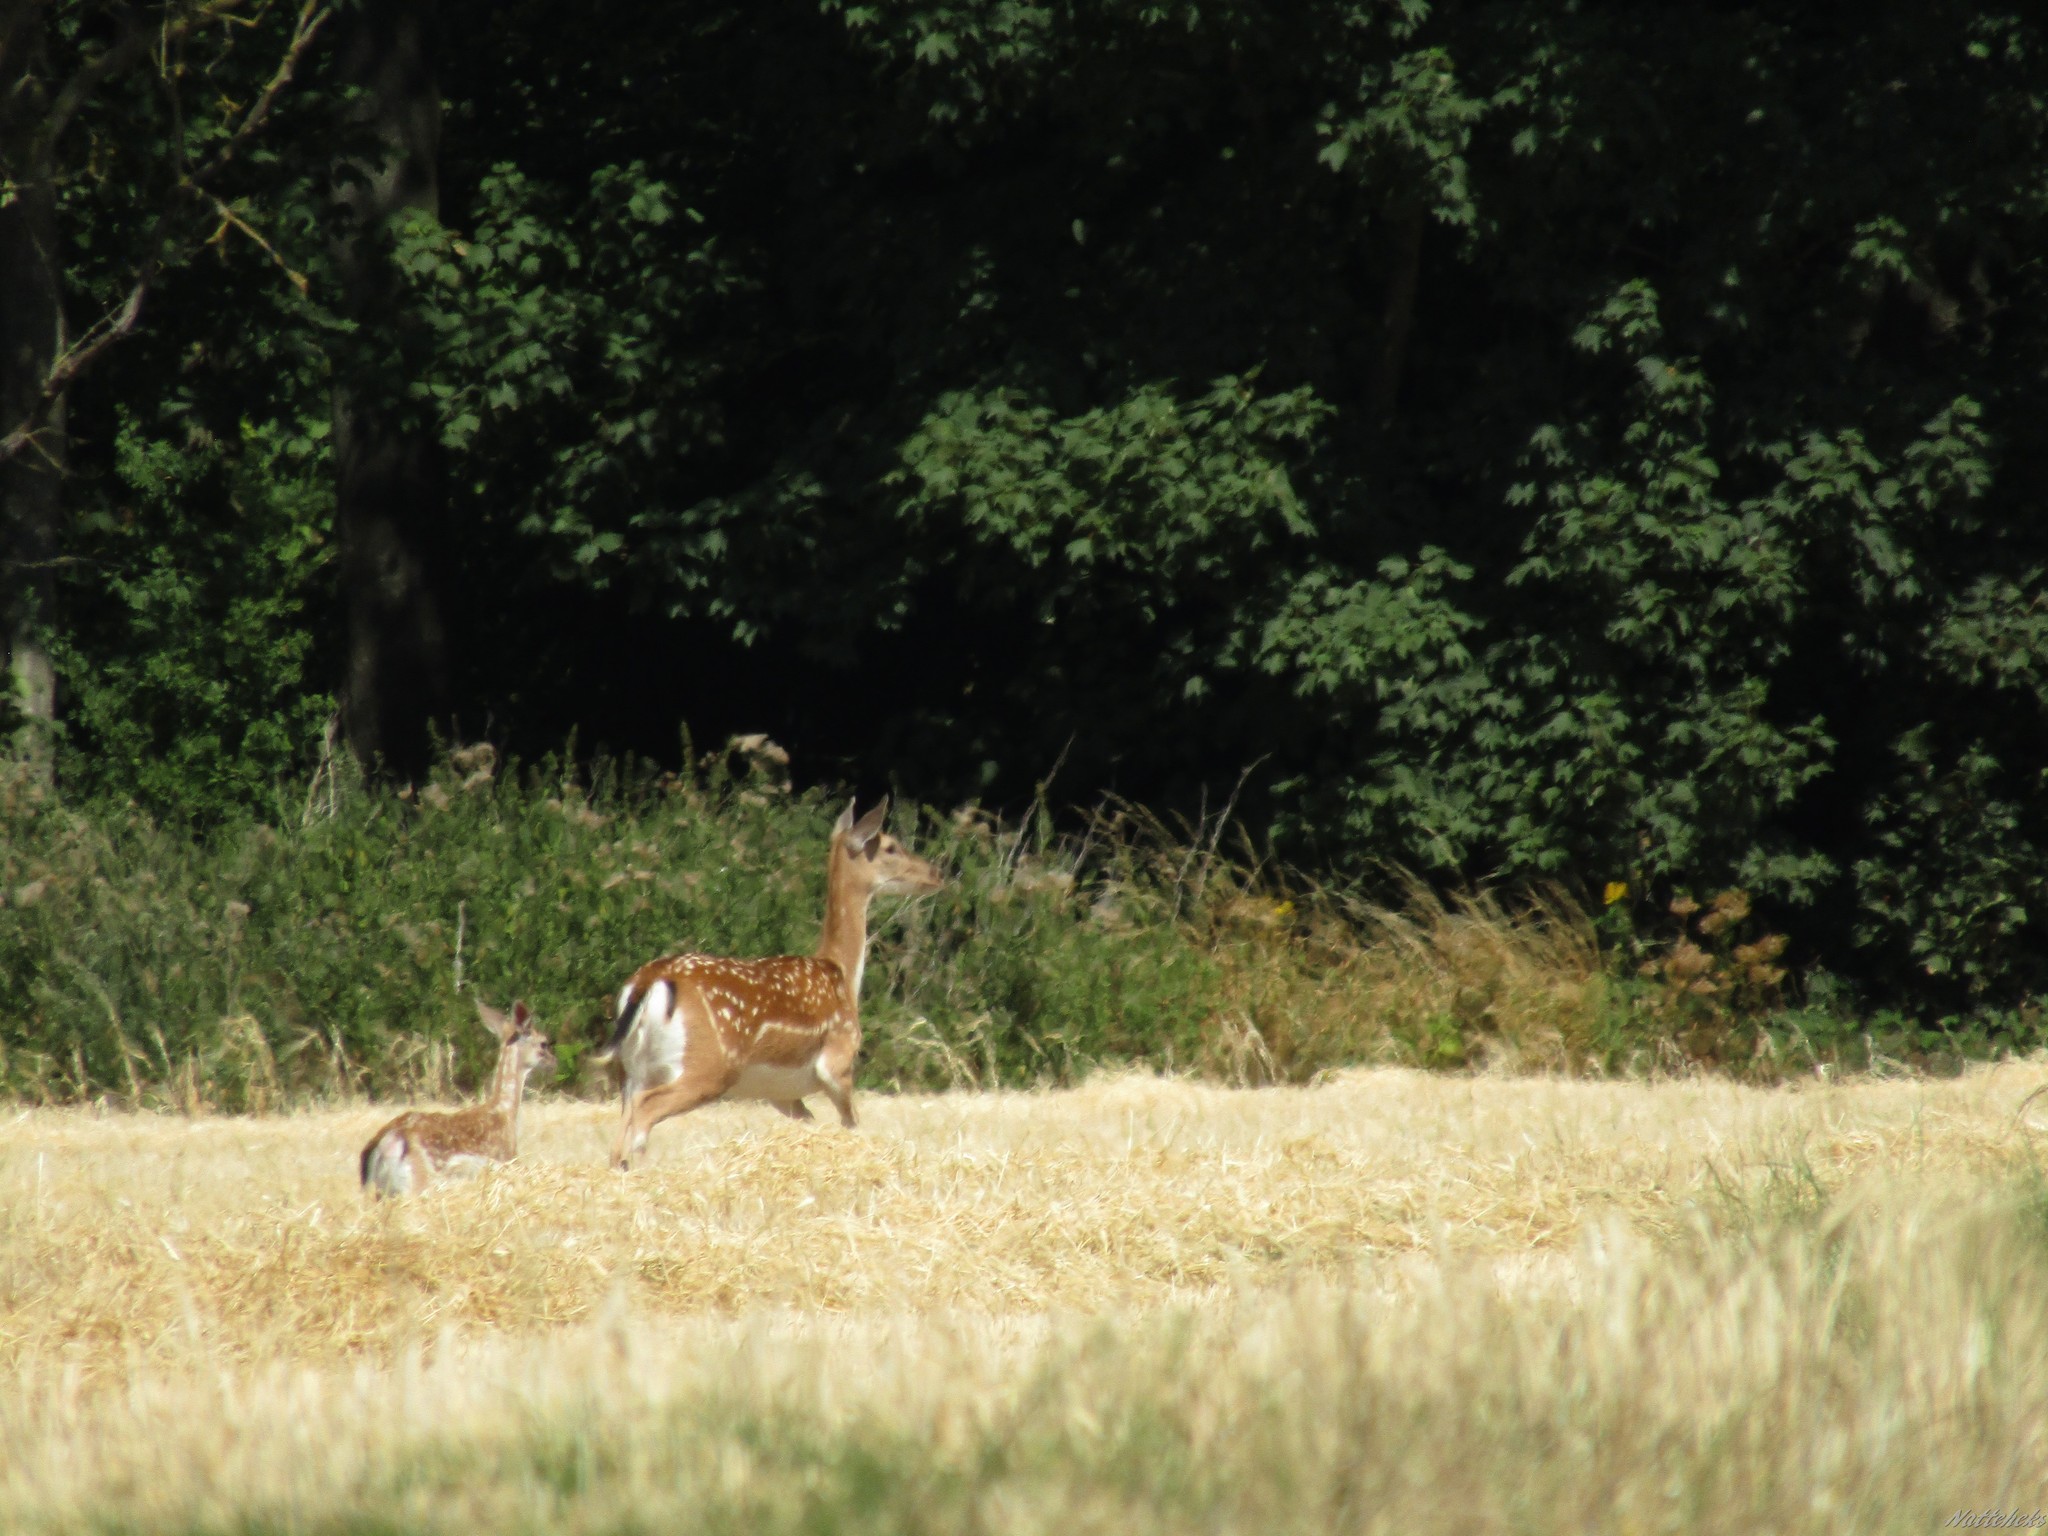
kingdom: Animalia
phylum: Chordata
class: Mammalia
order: Artiodactyla
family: Cervidae
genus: Dama
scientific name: Dama dama
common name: Fallow deer
